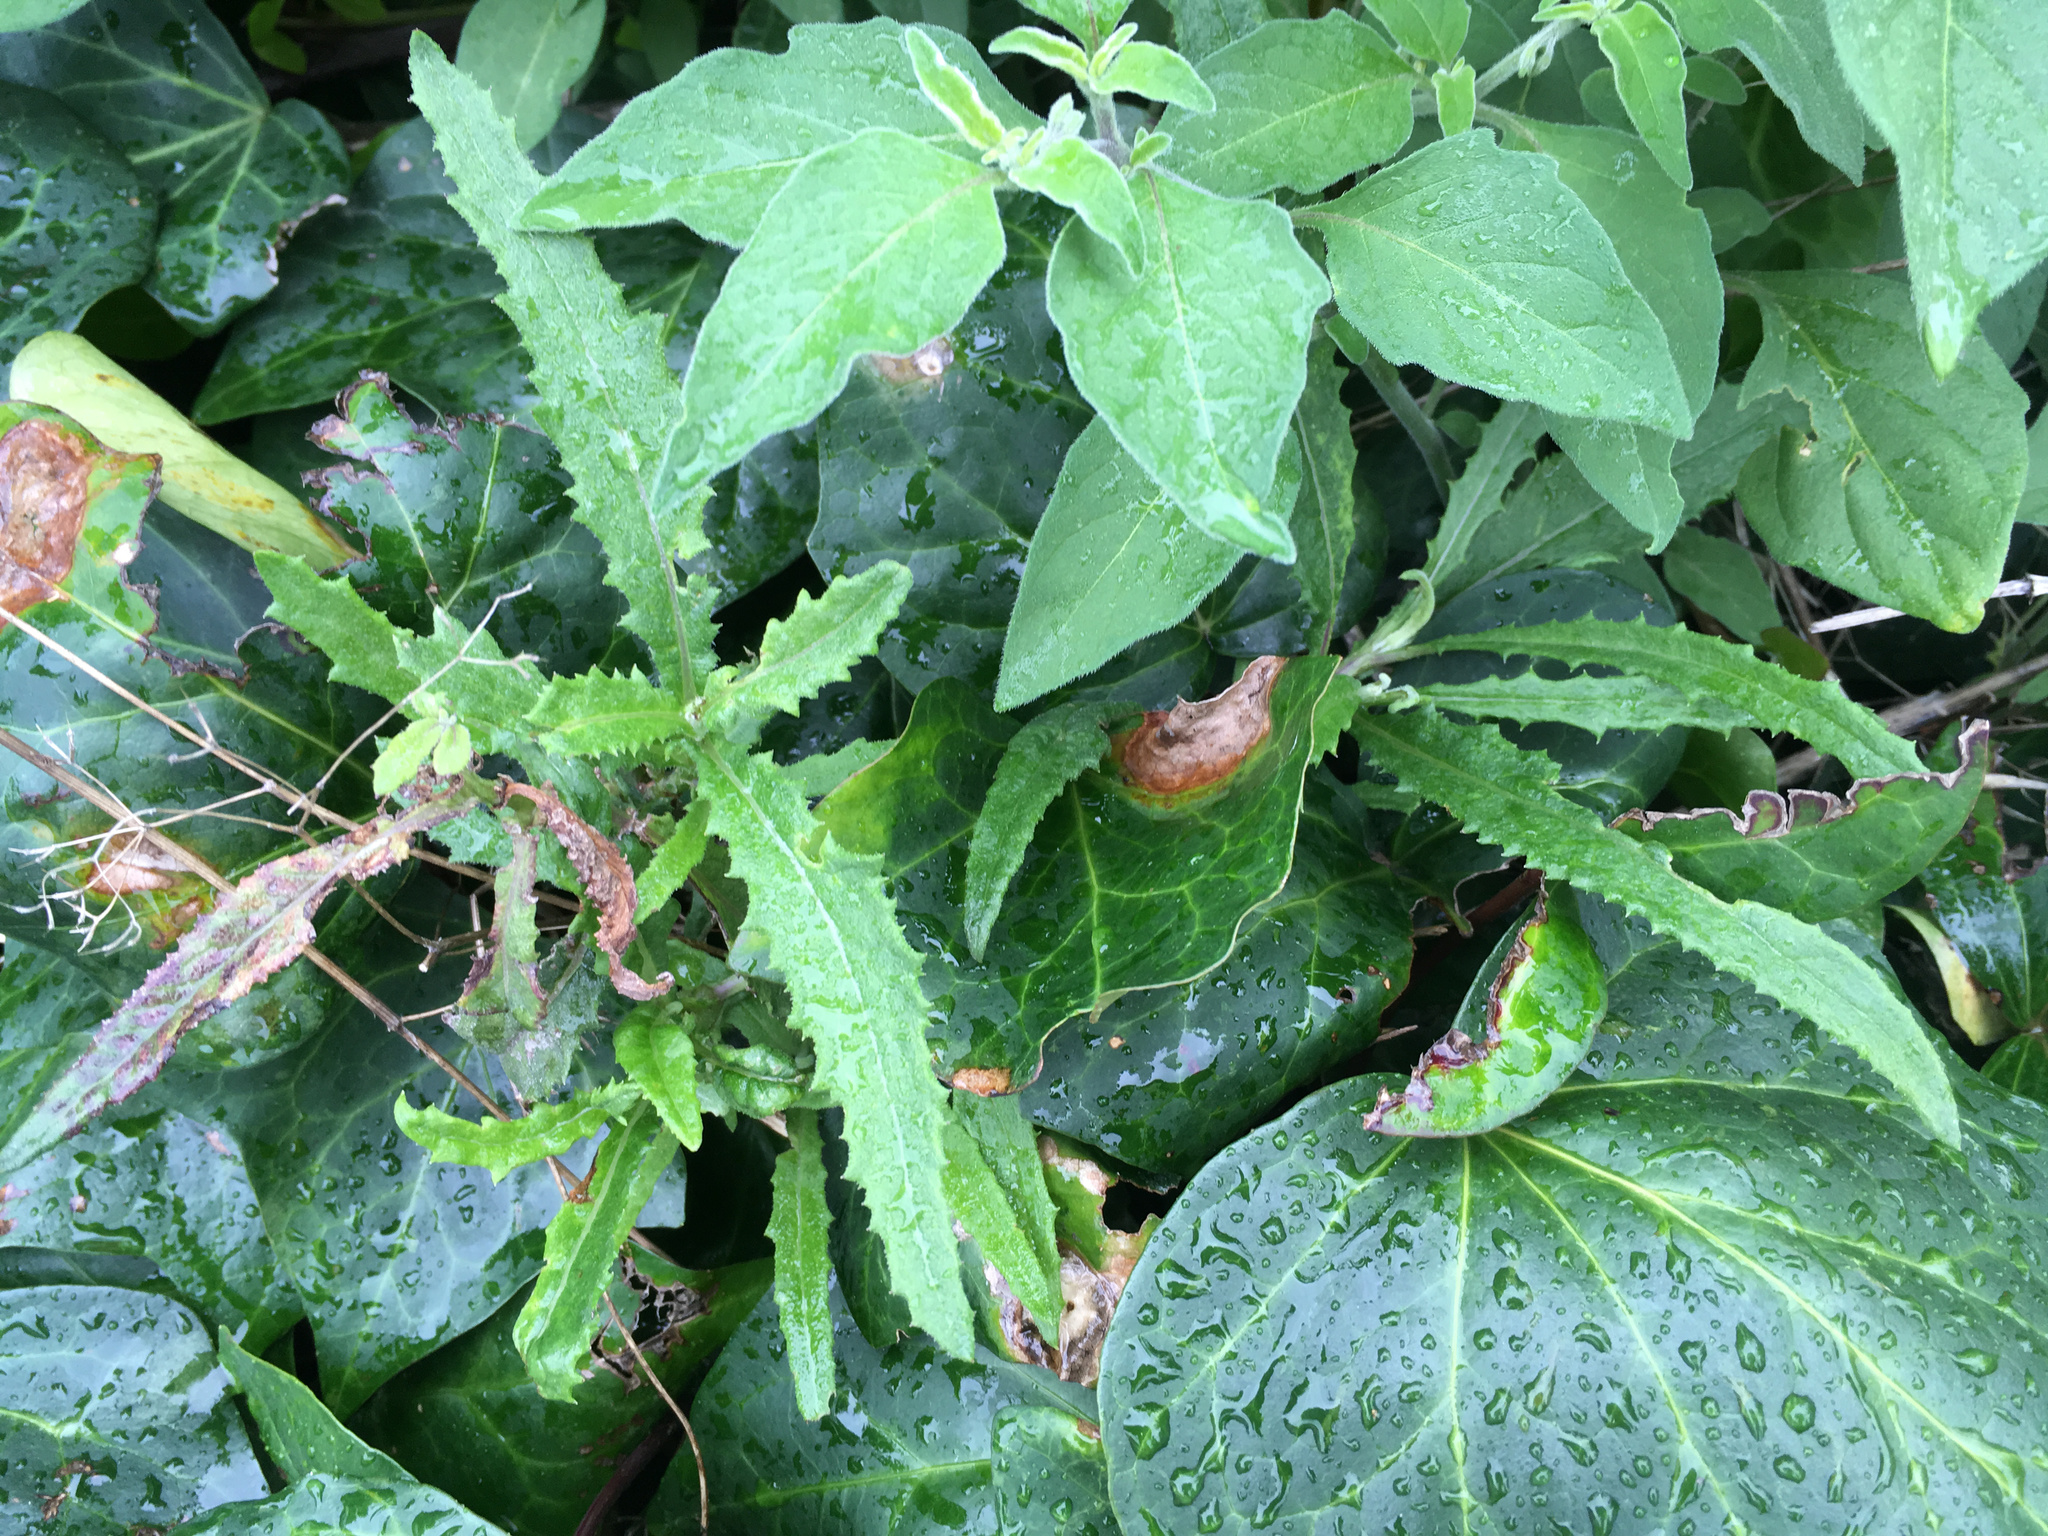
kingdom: Plantae
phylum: Tracheophyta
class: Magnoliopsida
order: Asterales
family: Asteraceae
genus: Senecio
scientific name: Senecio minimus
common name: Toothed fireweed
